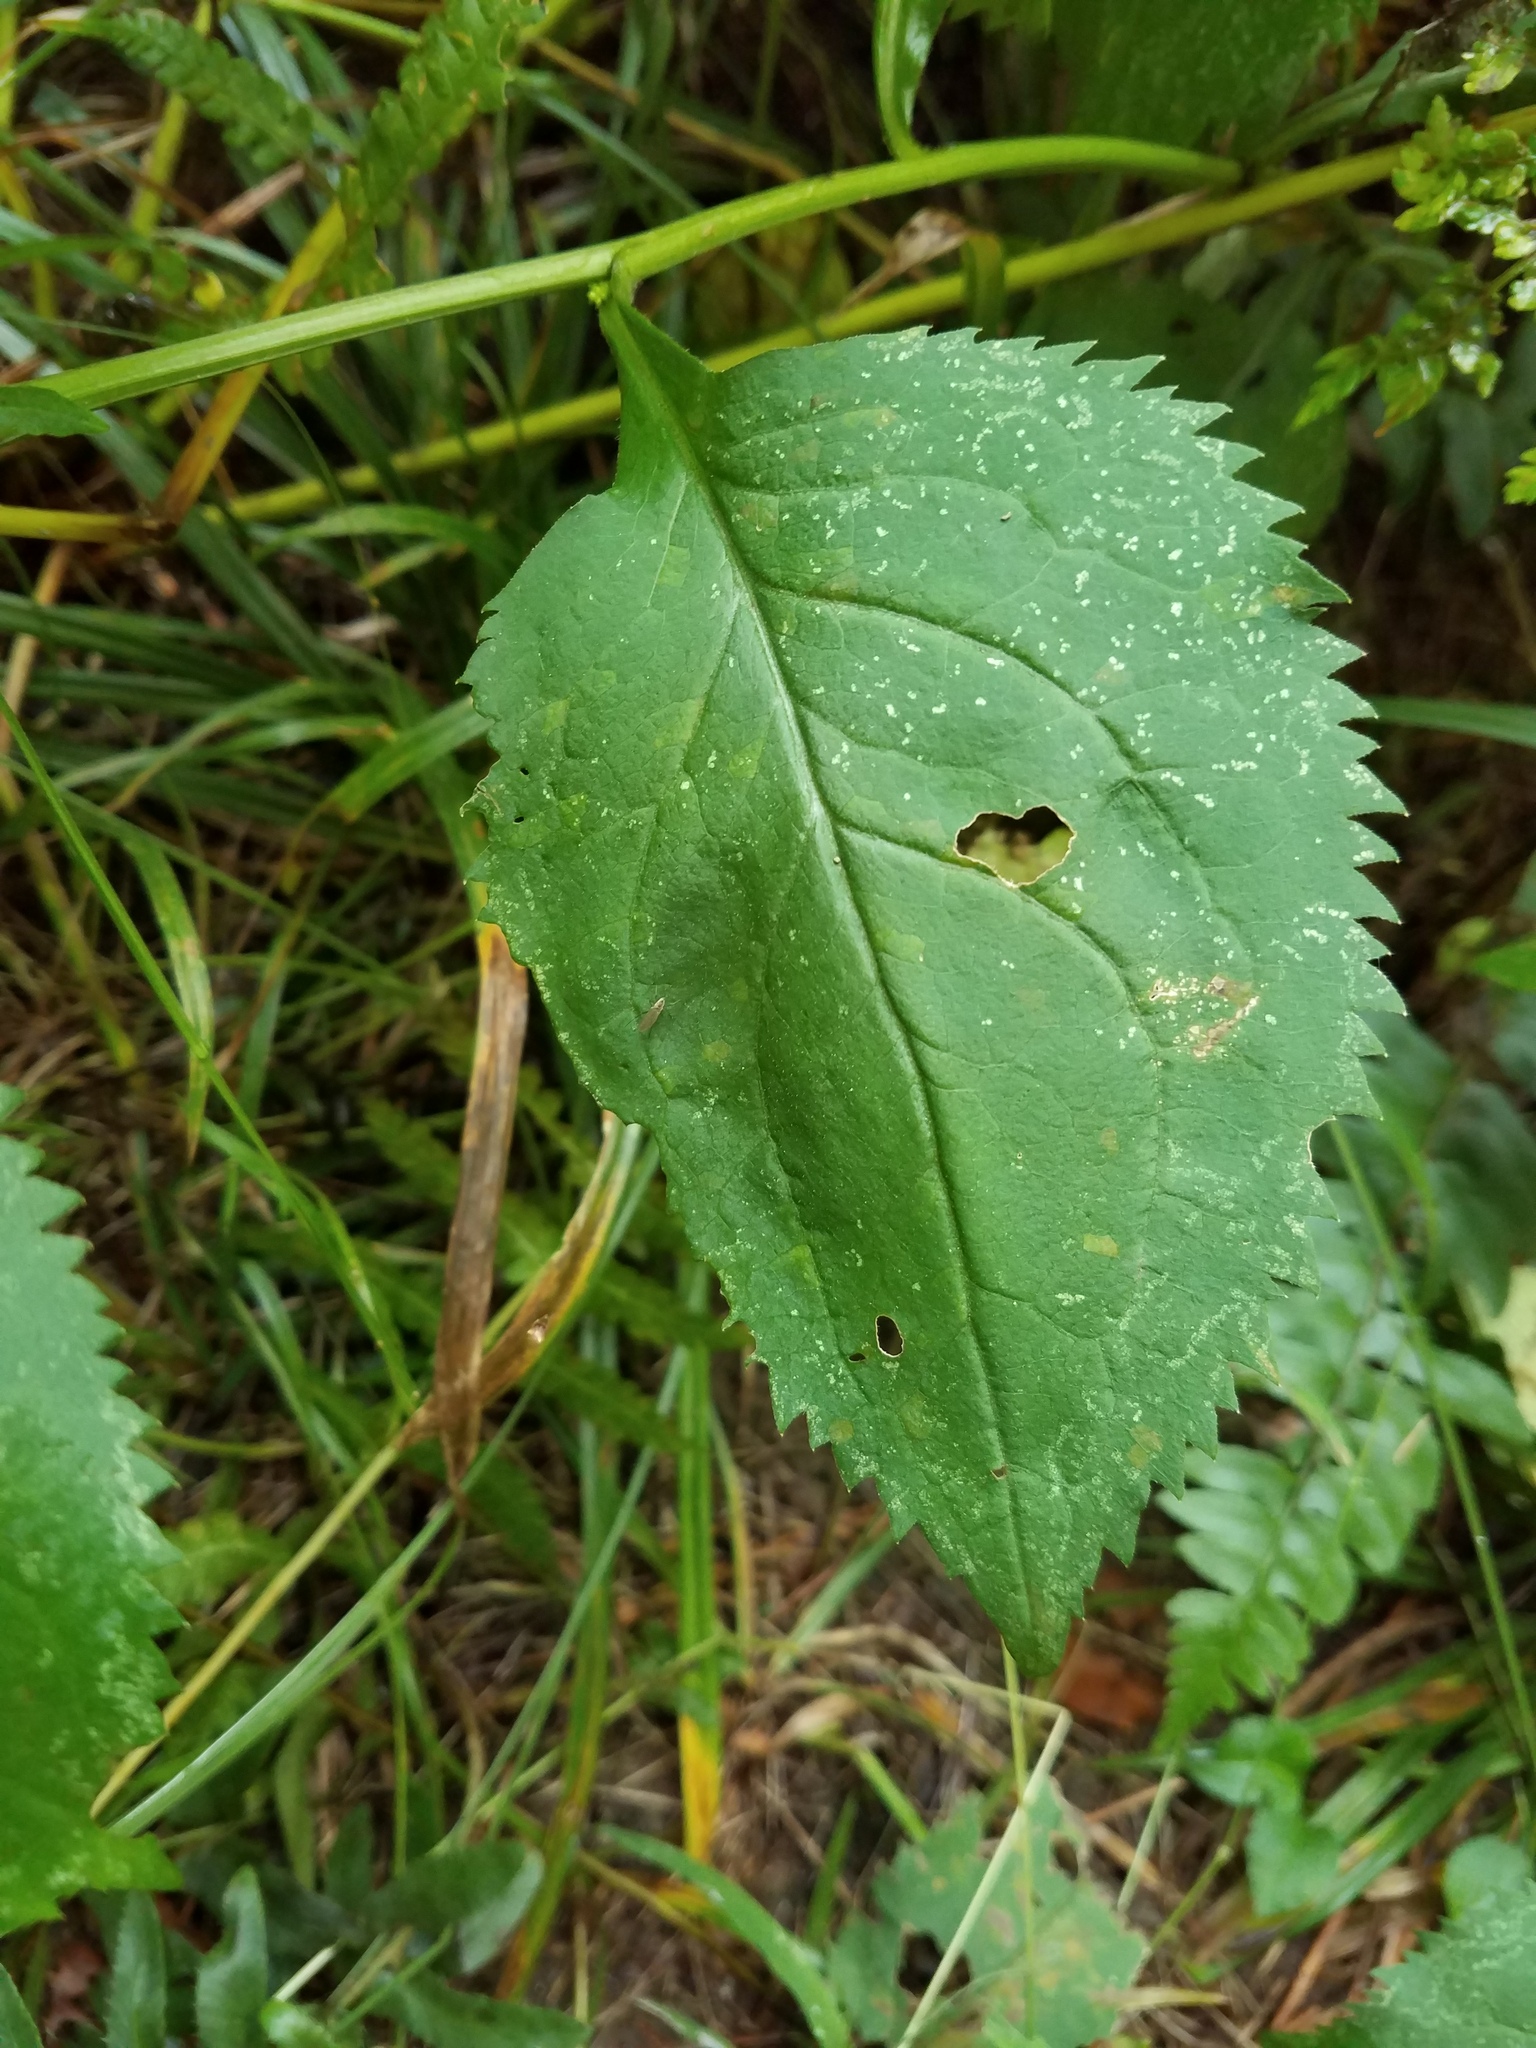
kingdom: Plantae
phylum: Tracheophyta
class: Magnoliopsida
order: Asterales
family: Asteraceae
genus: Solidago
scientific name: Solidago flexicaulis
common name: Zig-zag goldenrod
